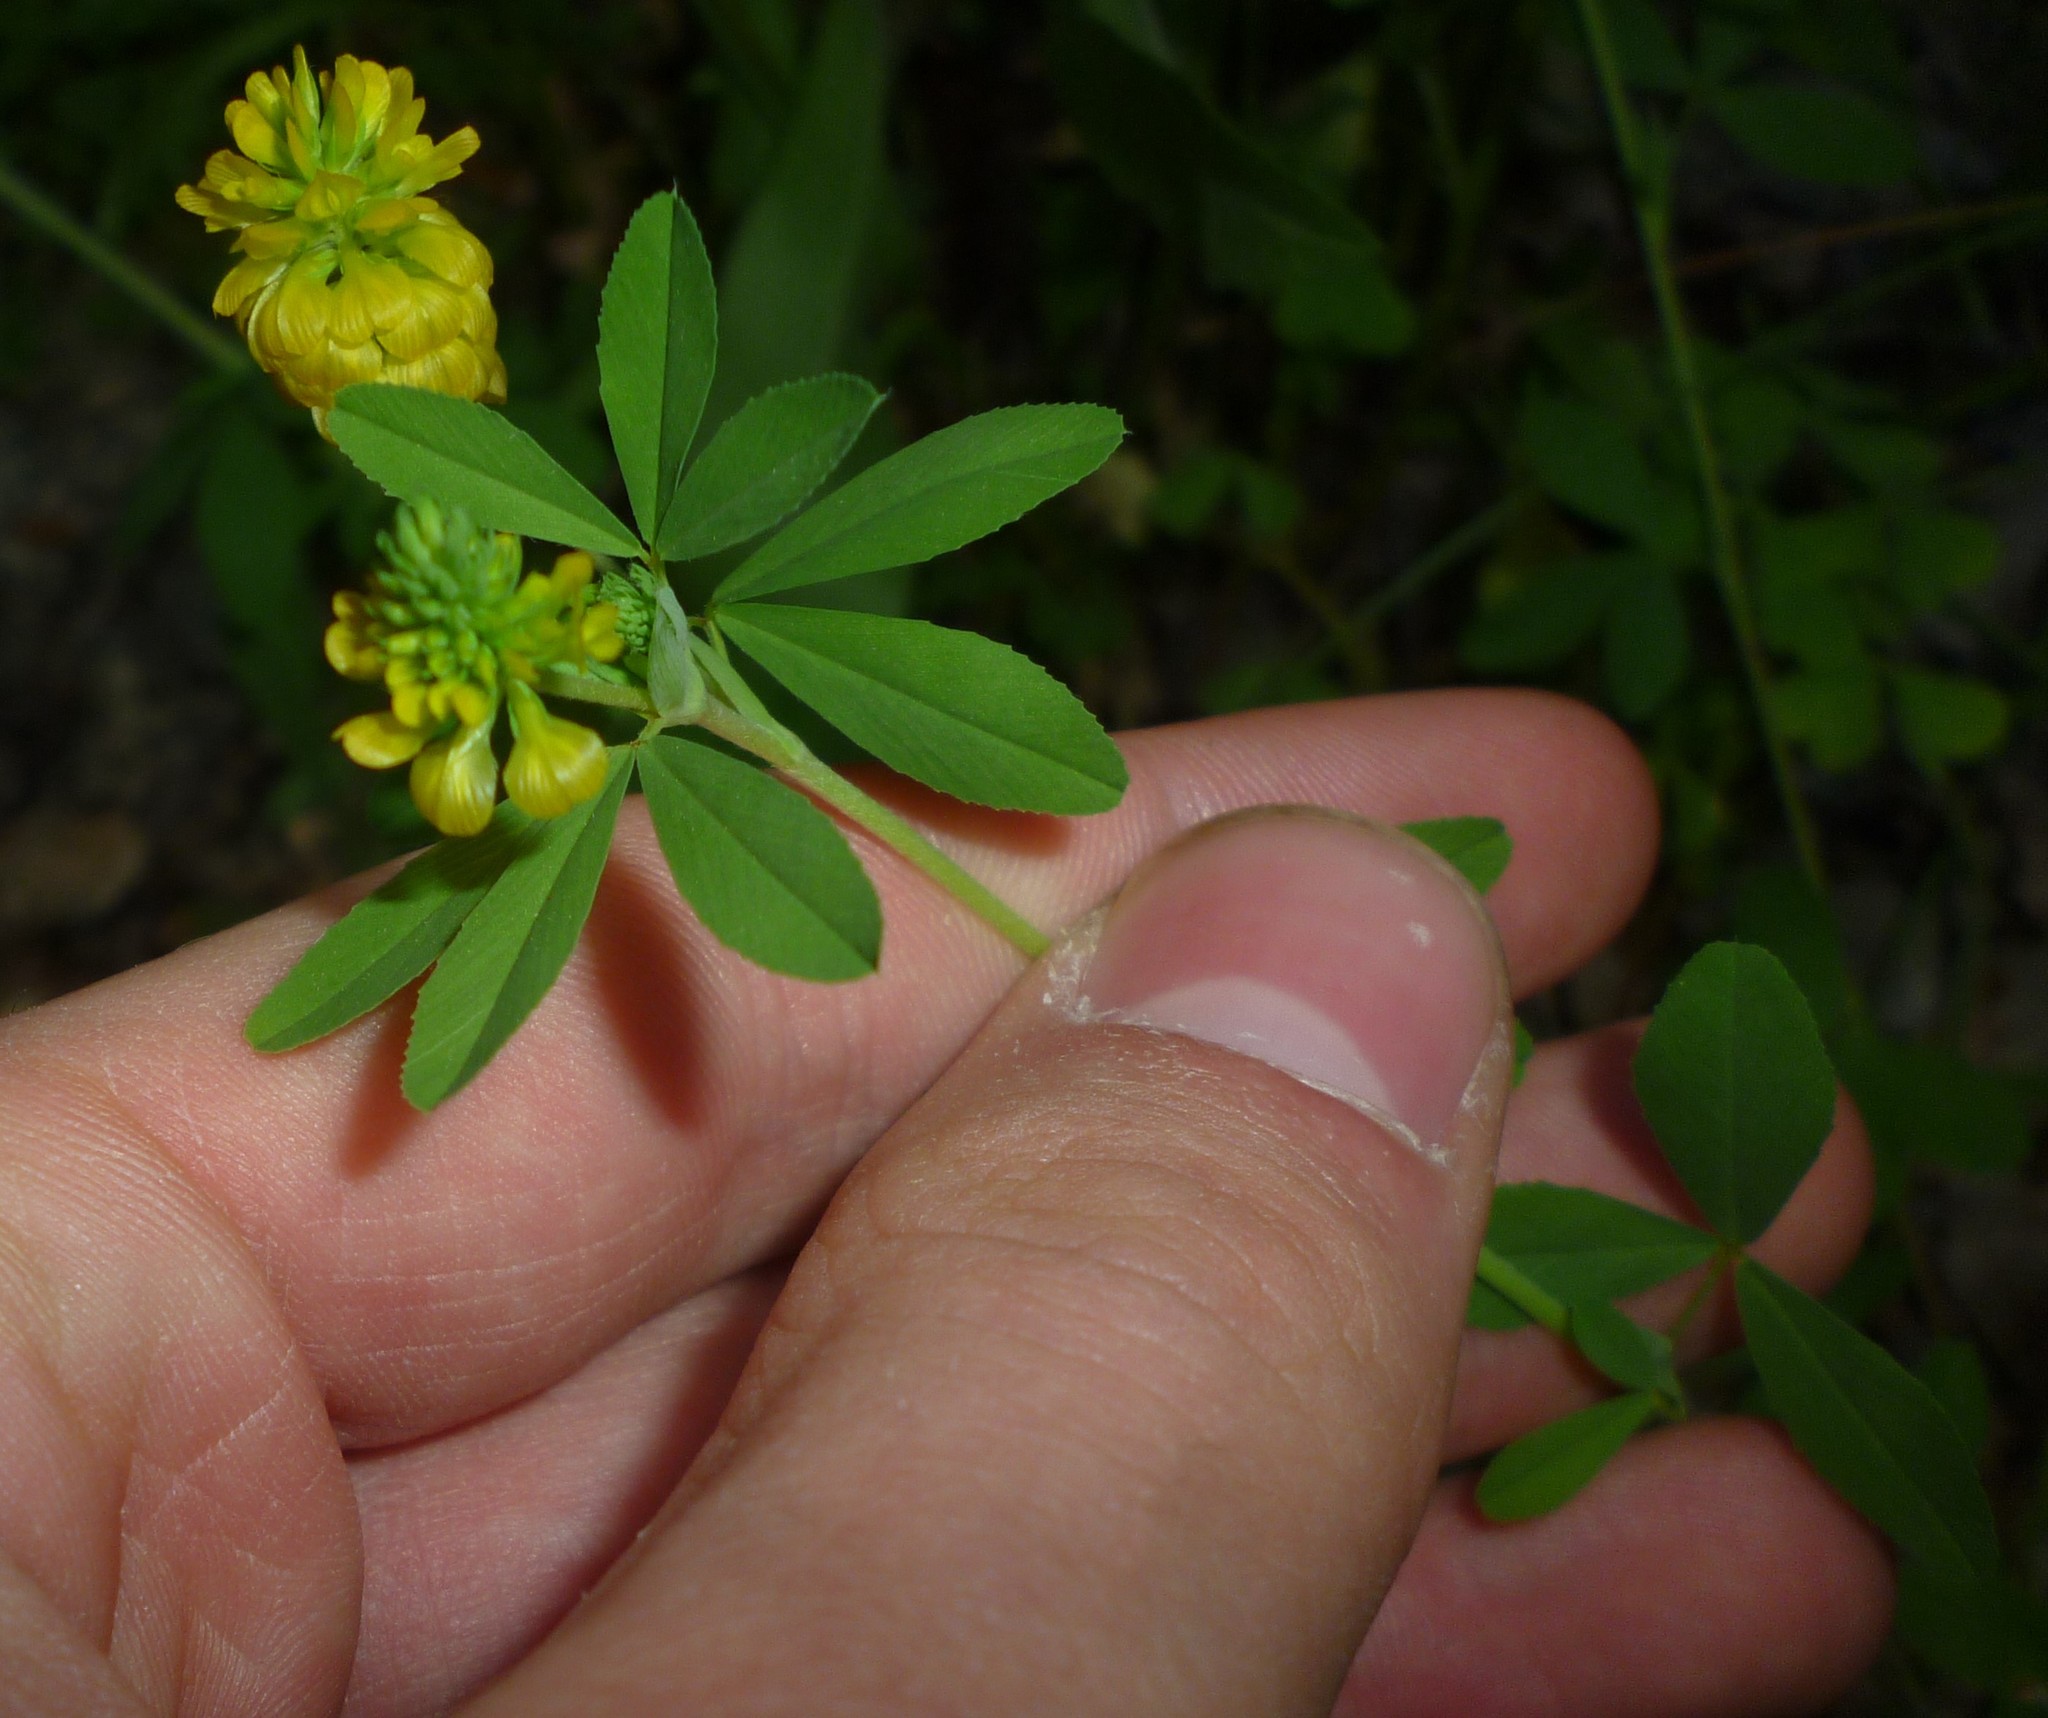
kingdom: Plantae
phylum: Tracheophyta
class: Magnoliopsida
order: Fabales
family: Fabaceae
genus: Trifolium
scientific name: Trifolium aureum
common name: Golden clover
